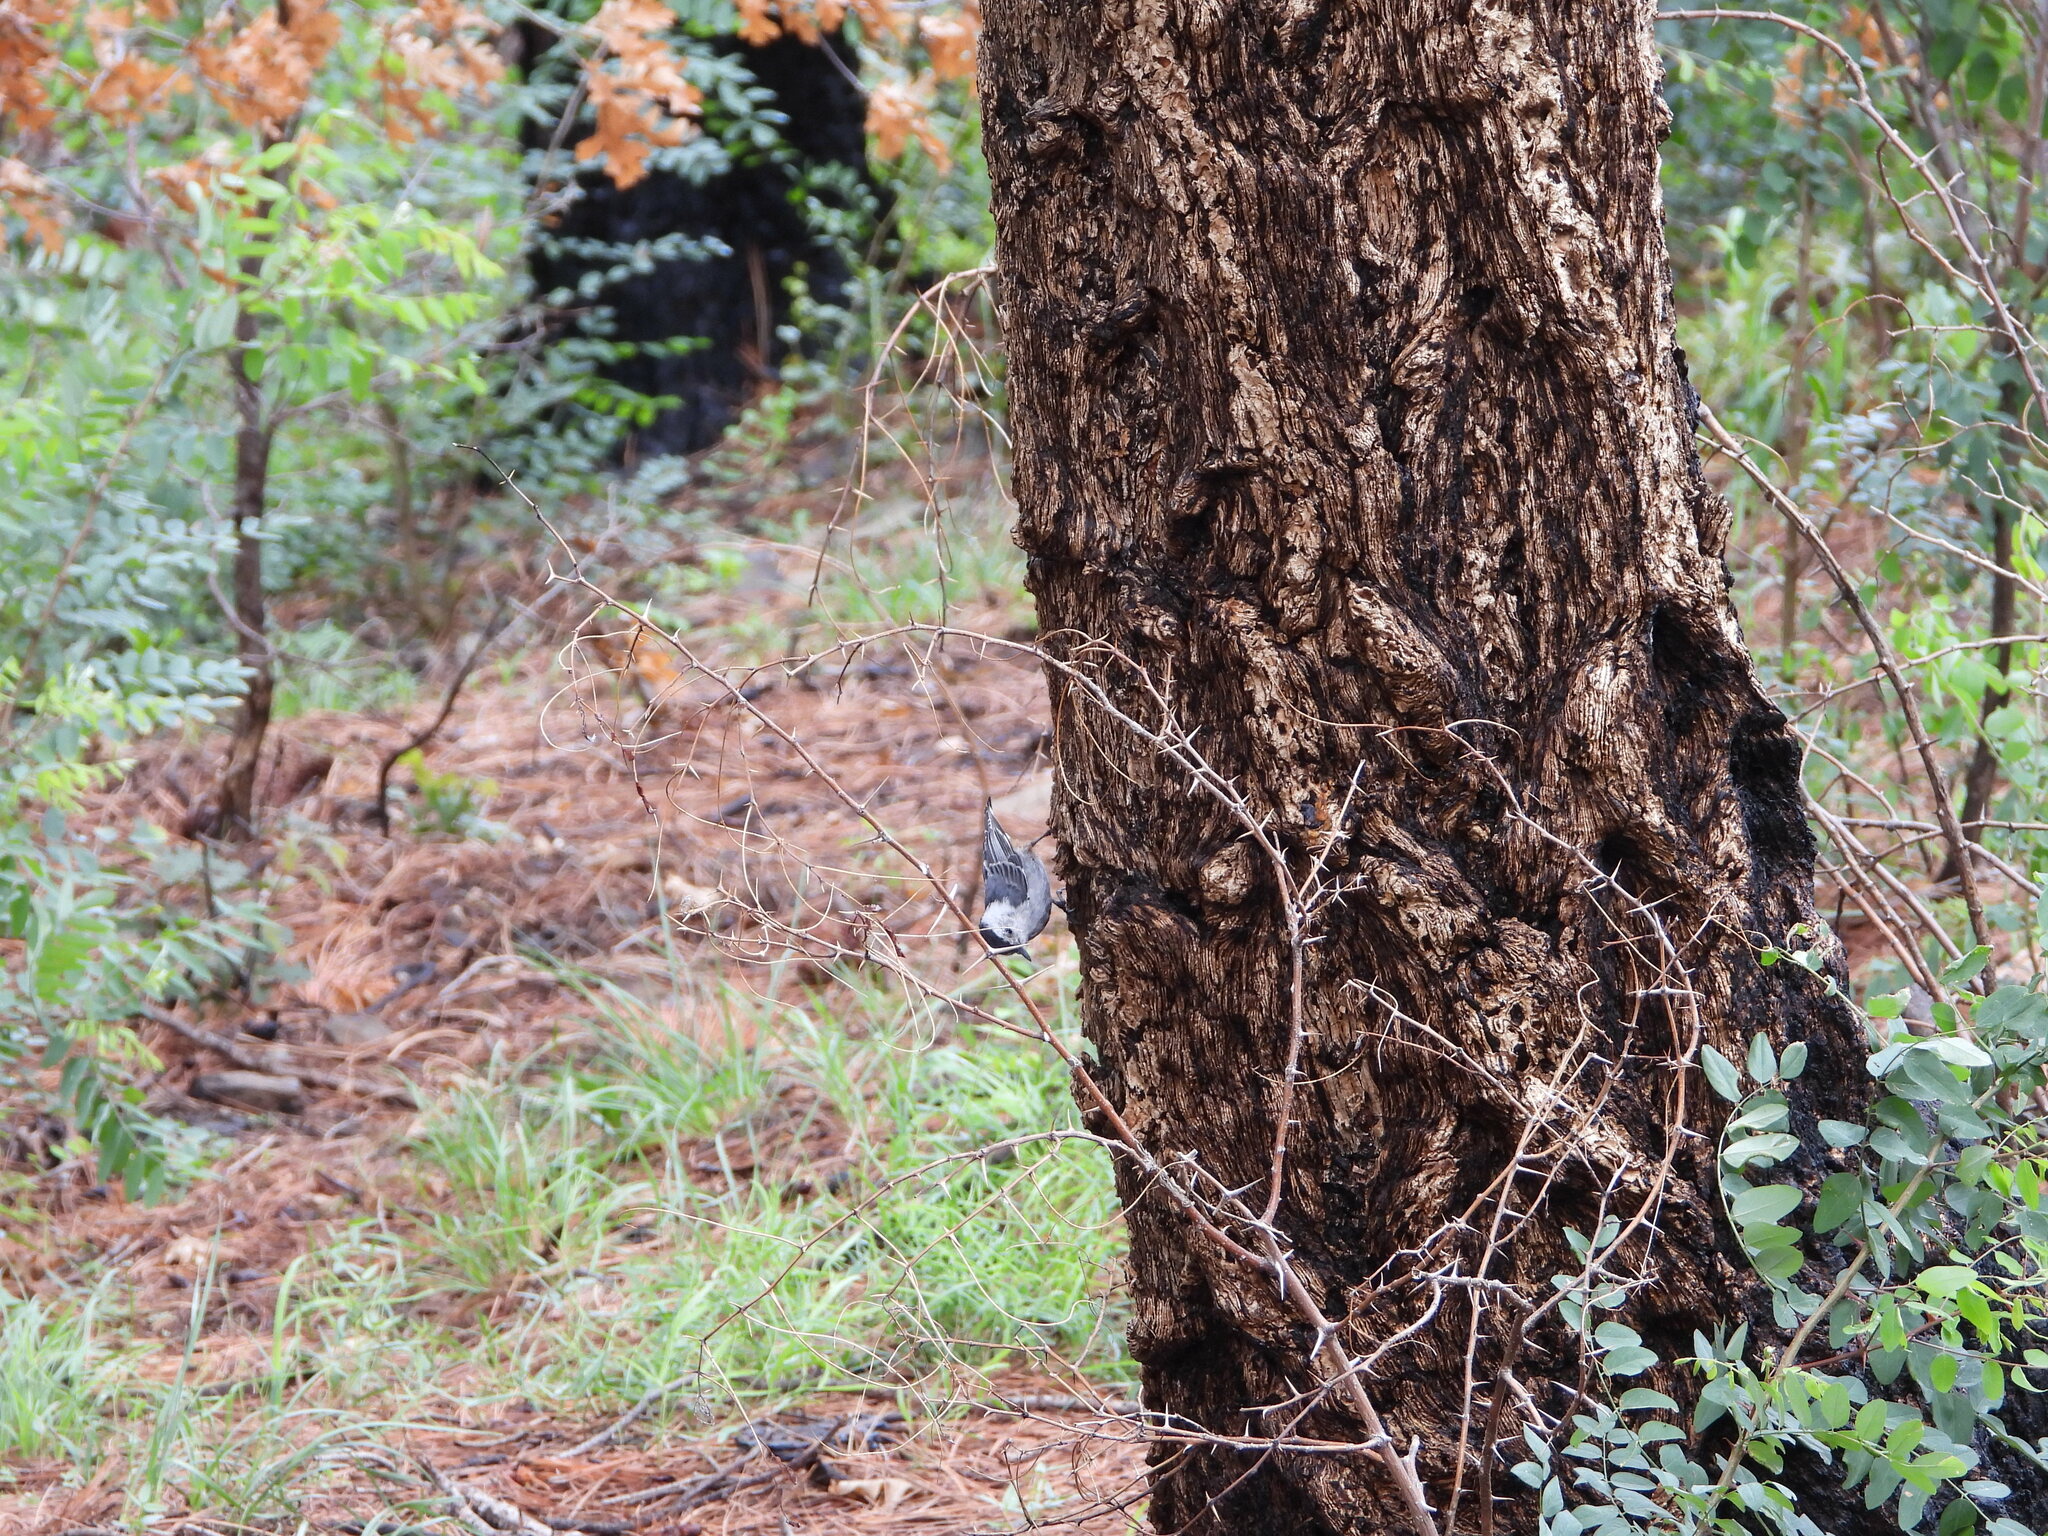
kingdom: Animalia
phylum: Chordata
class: Aves
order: Passeriformes
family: Sittidae
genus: Sitta
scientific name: Sitta carolinensis
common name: White-breasted nuthatch
